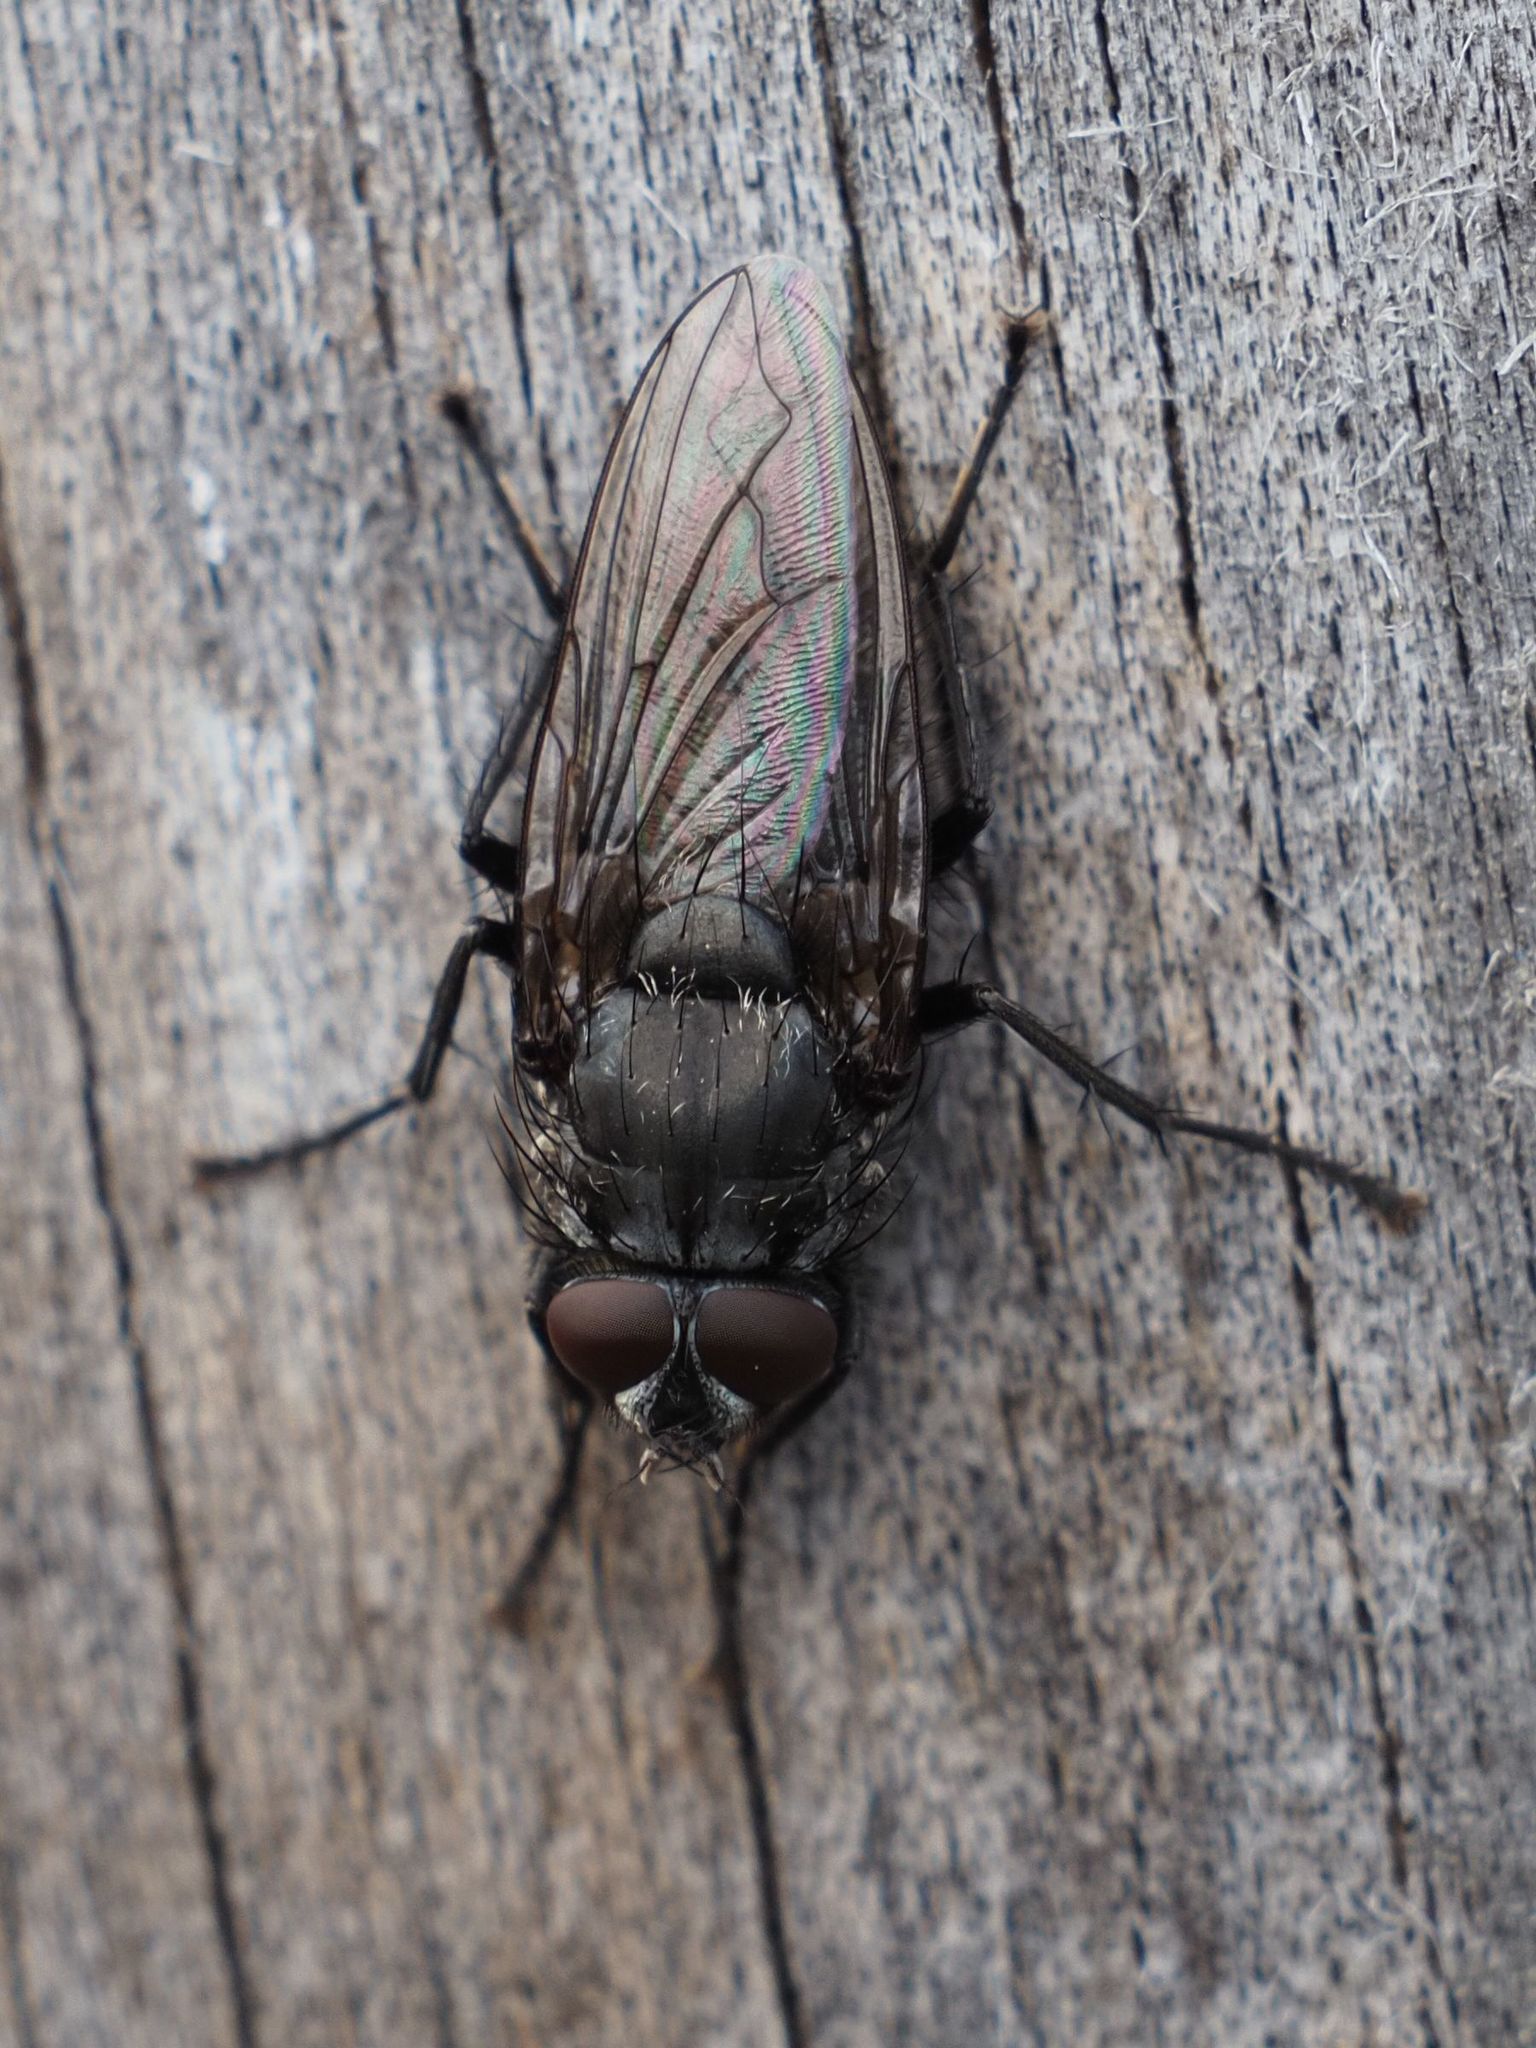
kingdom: Animalia
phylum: Arthropoda
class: Insecta
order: Diptera
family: Polleniidae
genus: Pollenia
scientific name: Pollenia vagabunda
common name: Vagabund cluster fly
